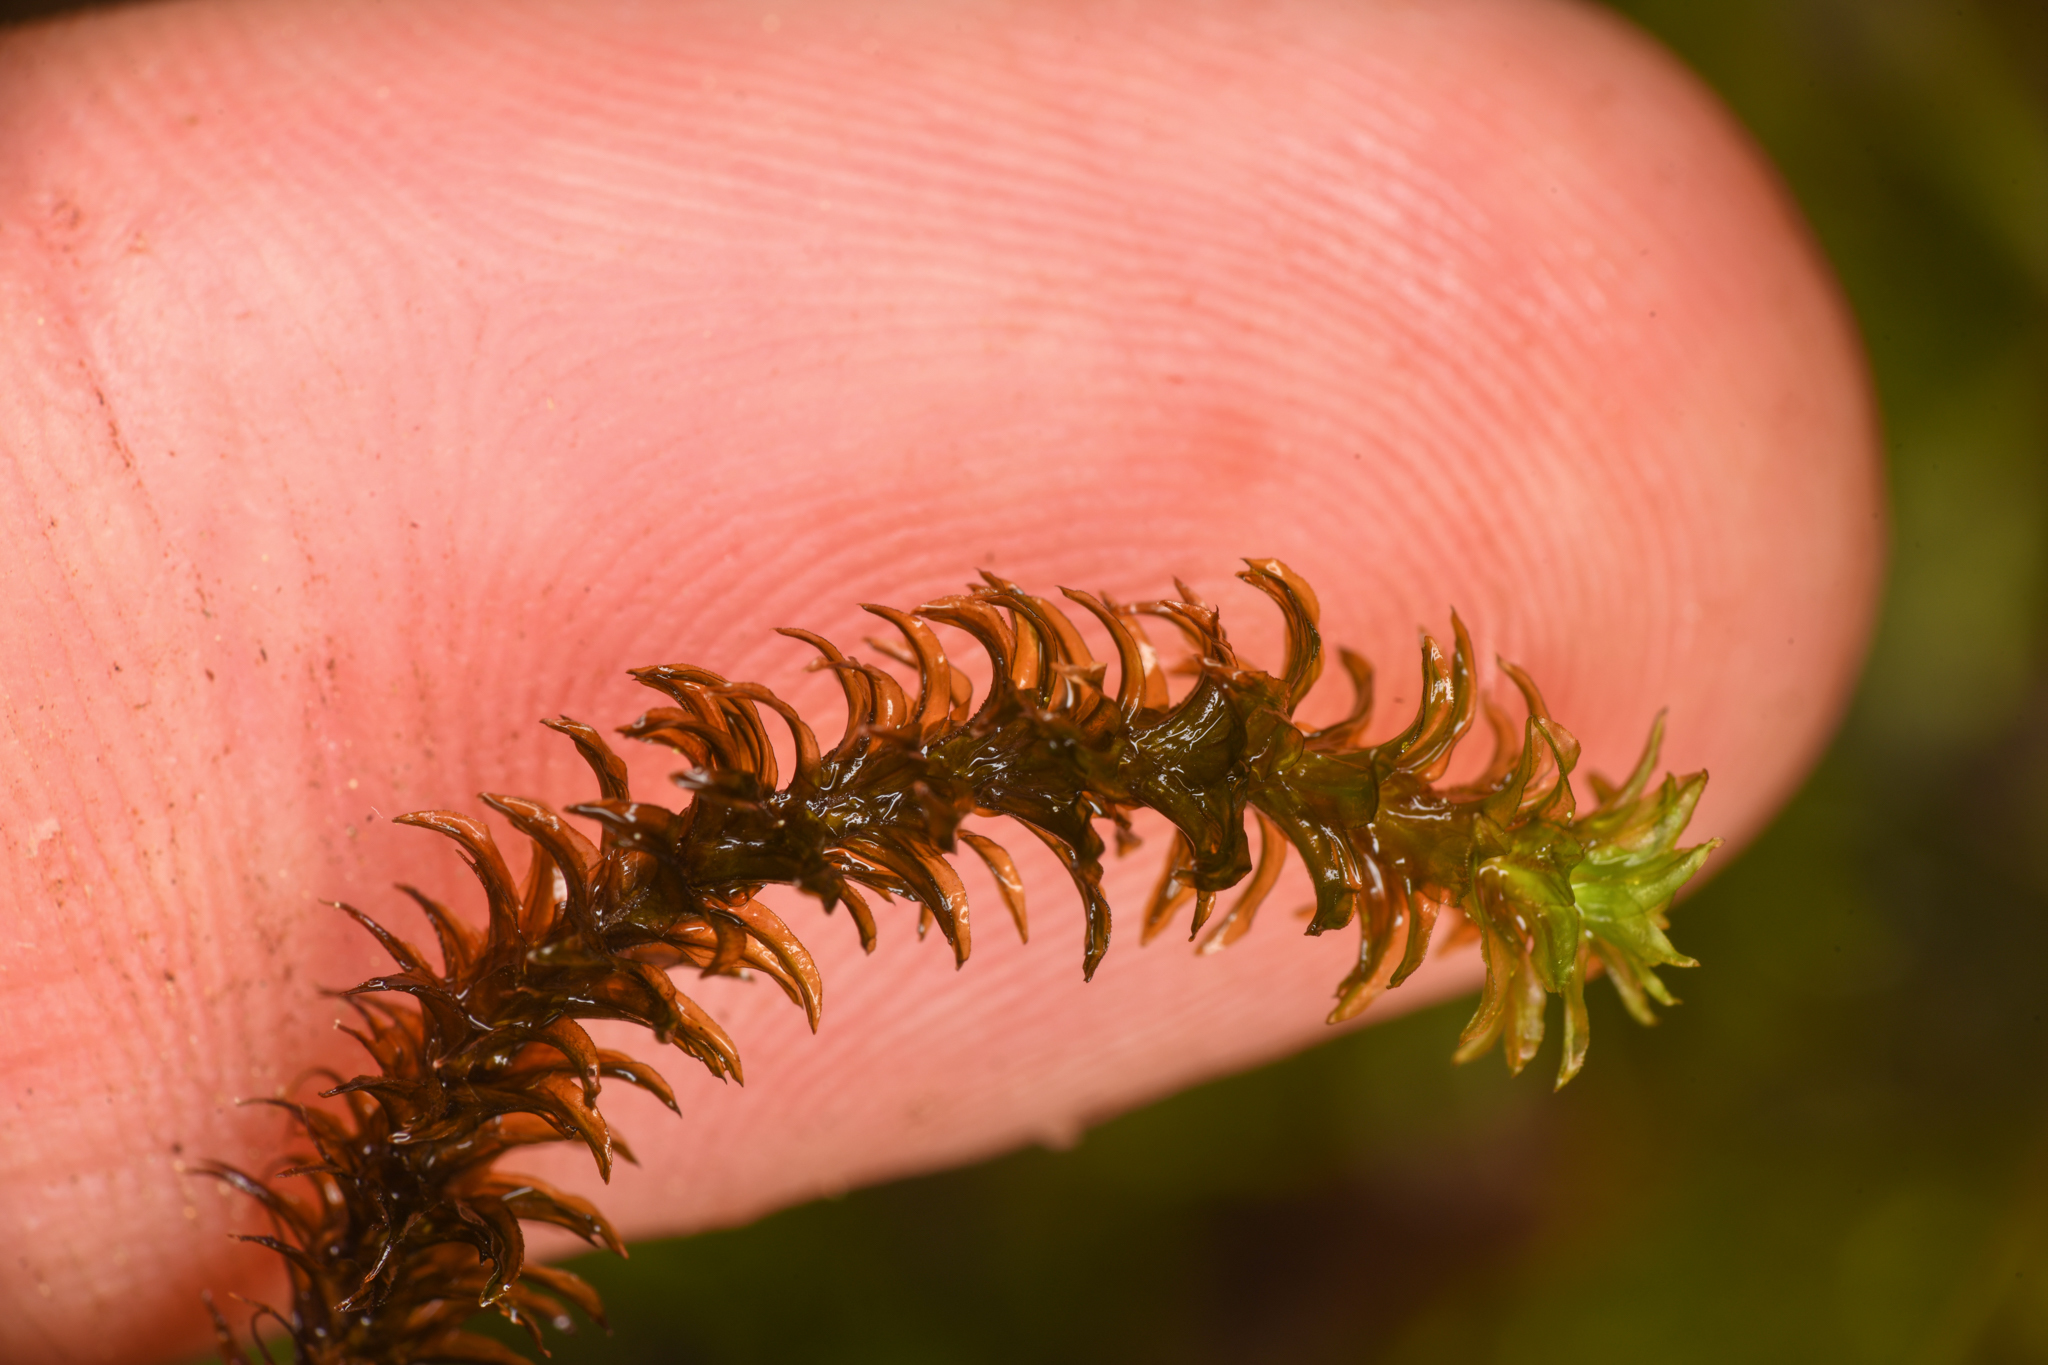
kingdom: Plantae
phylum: Bryophyta
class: Bryopsida
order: Scouleriales
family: Scouleriaceae
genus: Scouleria
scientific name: Scouleria aquatica
